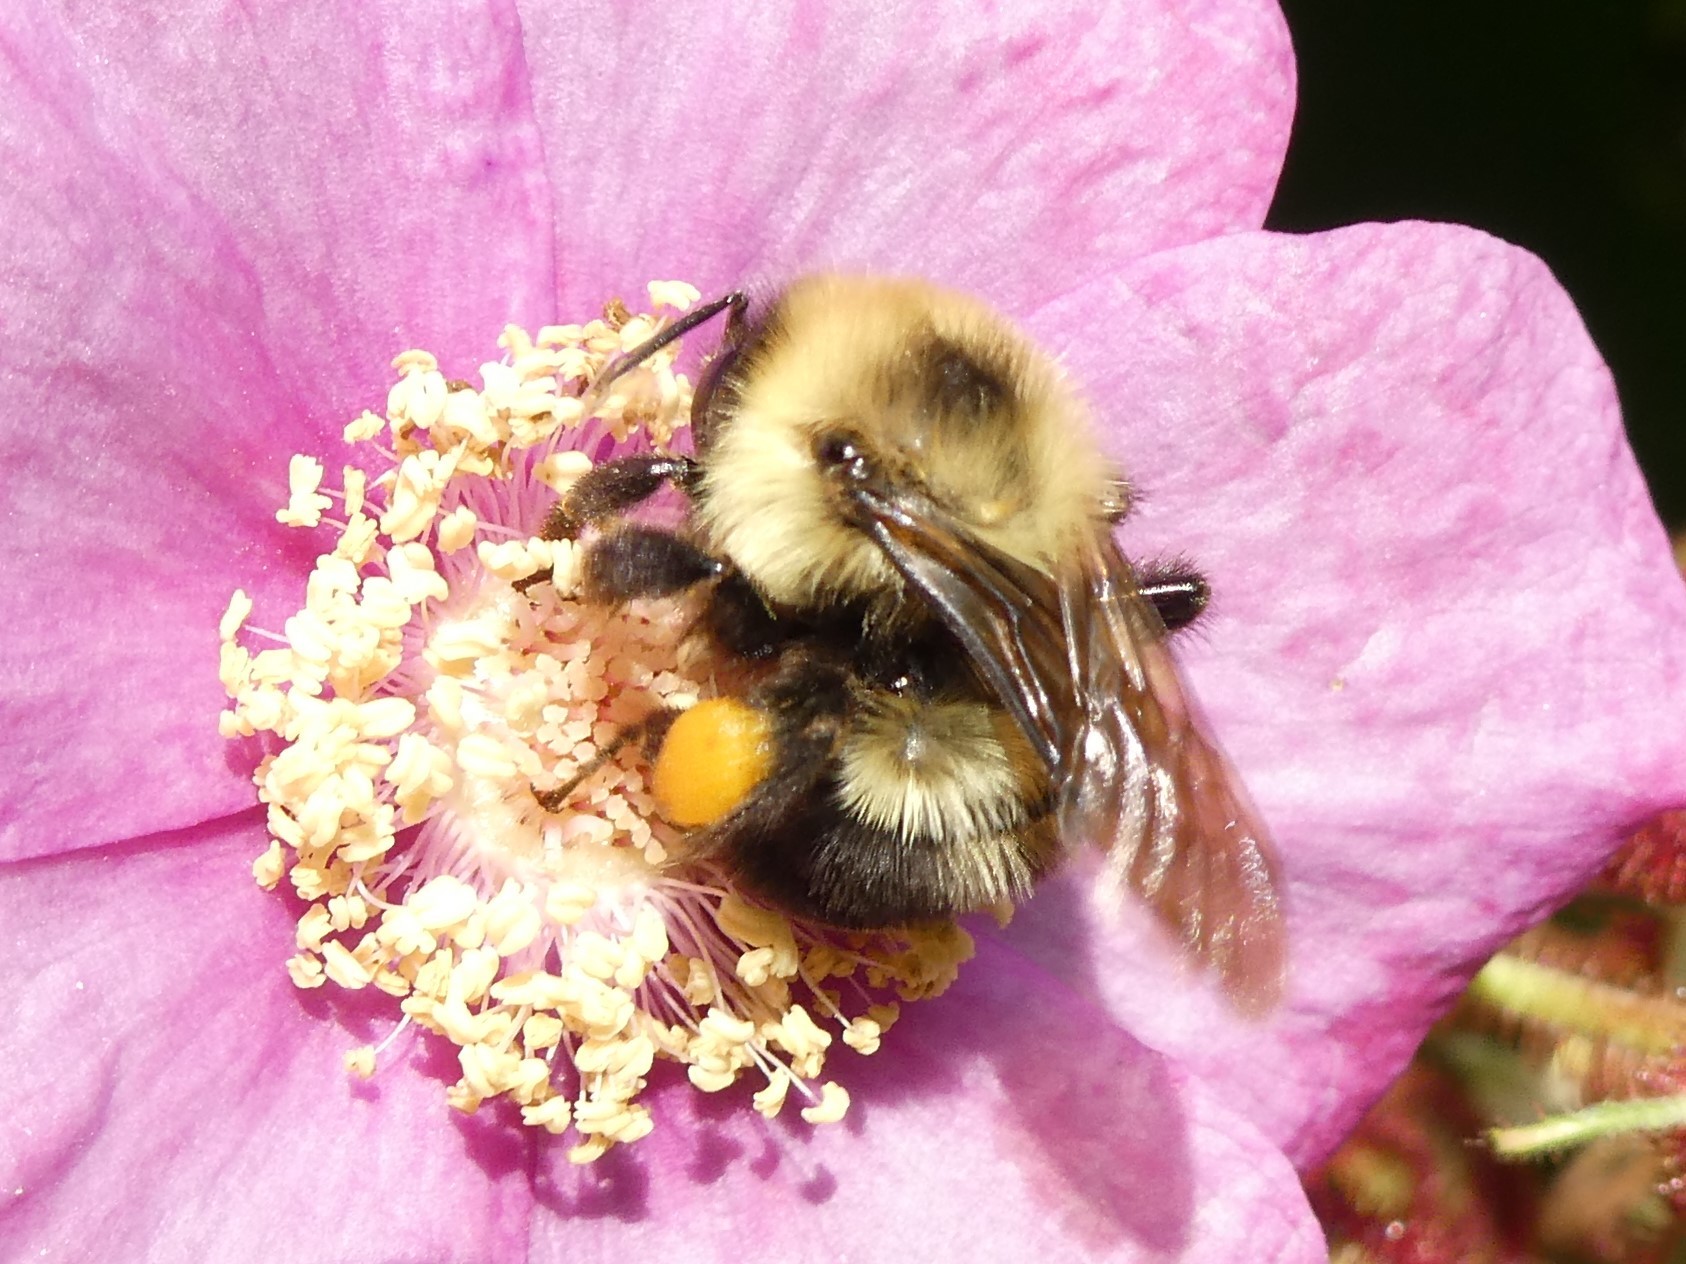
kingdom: Animalia
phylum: Arthropoda
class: Insecta
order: Hymenoptera
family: Apidae
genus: Bombus
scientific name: Bombus bimaculatus
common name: Two-spotted bumble bee
